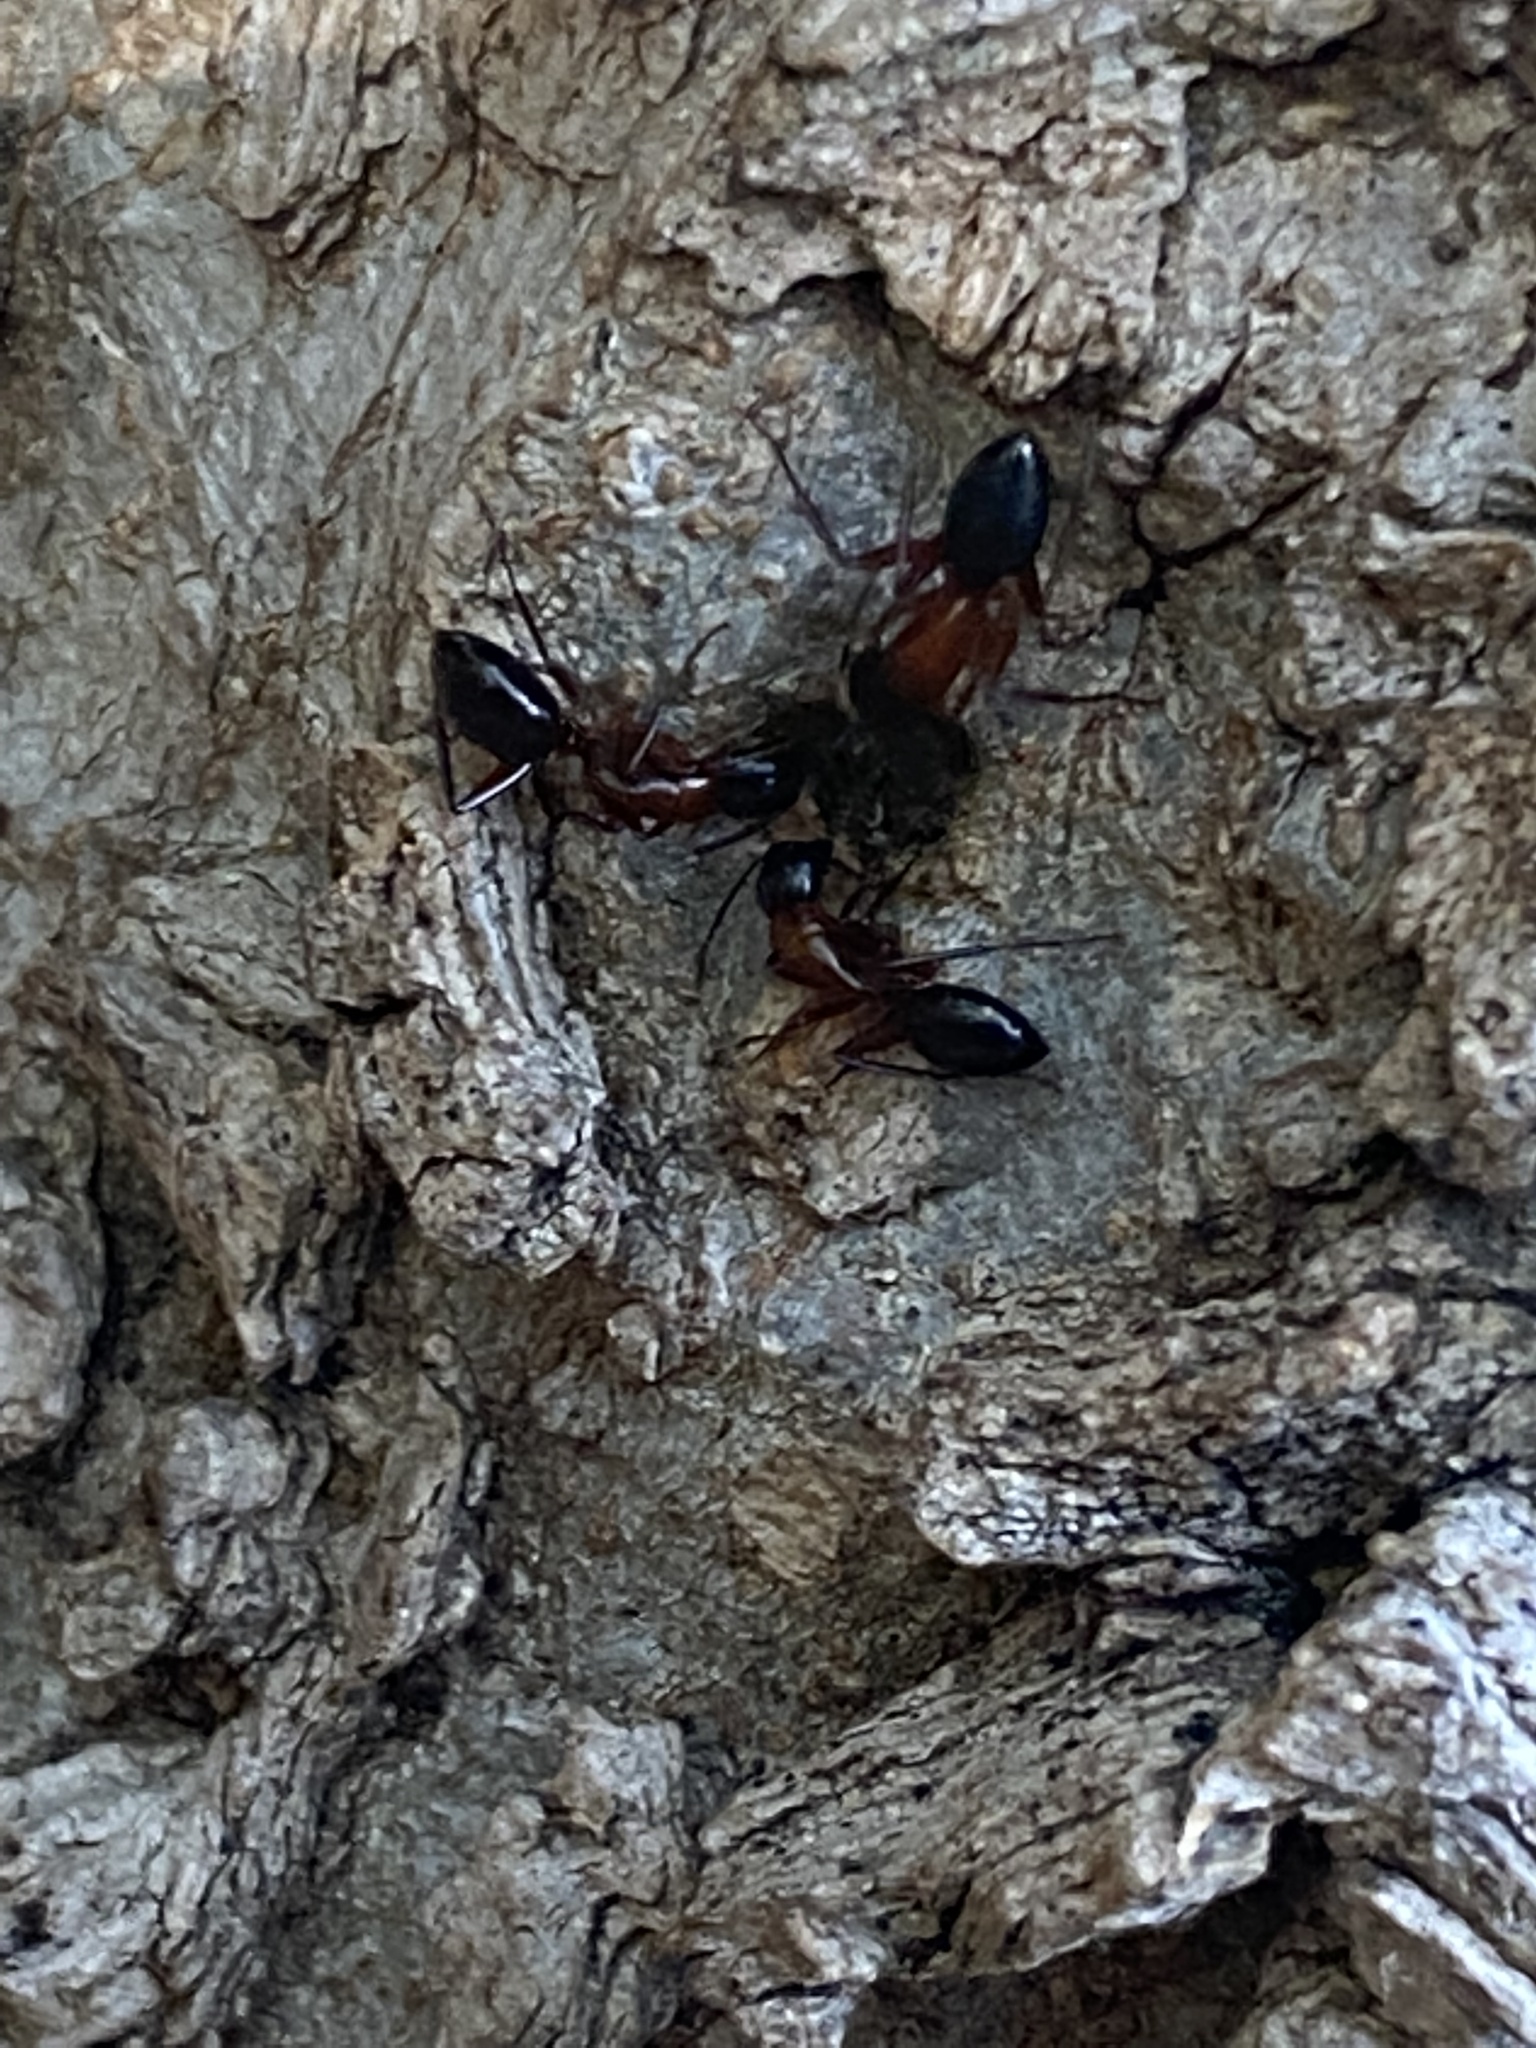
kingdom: Animalia
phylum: Arthropoda
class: Insecta
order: Hymenoptera
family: Formicidae
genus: Camponotus
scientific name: Camponotus texanus
